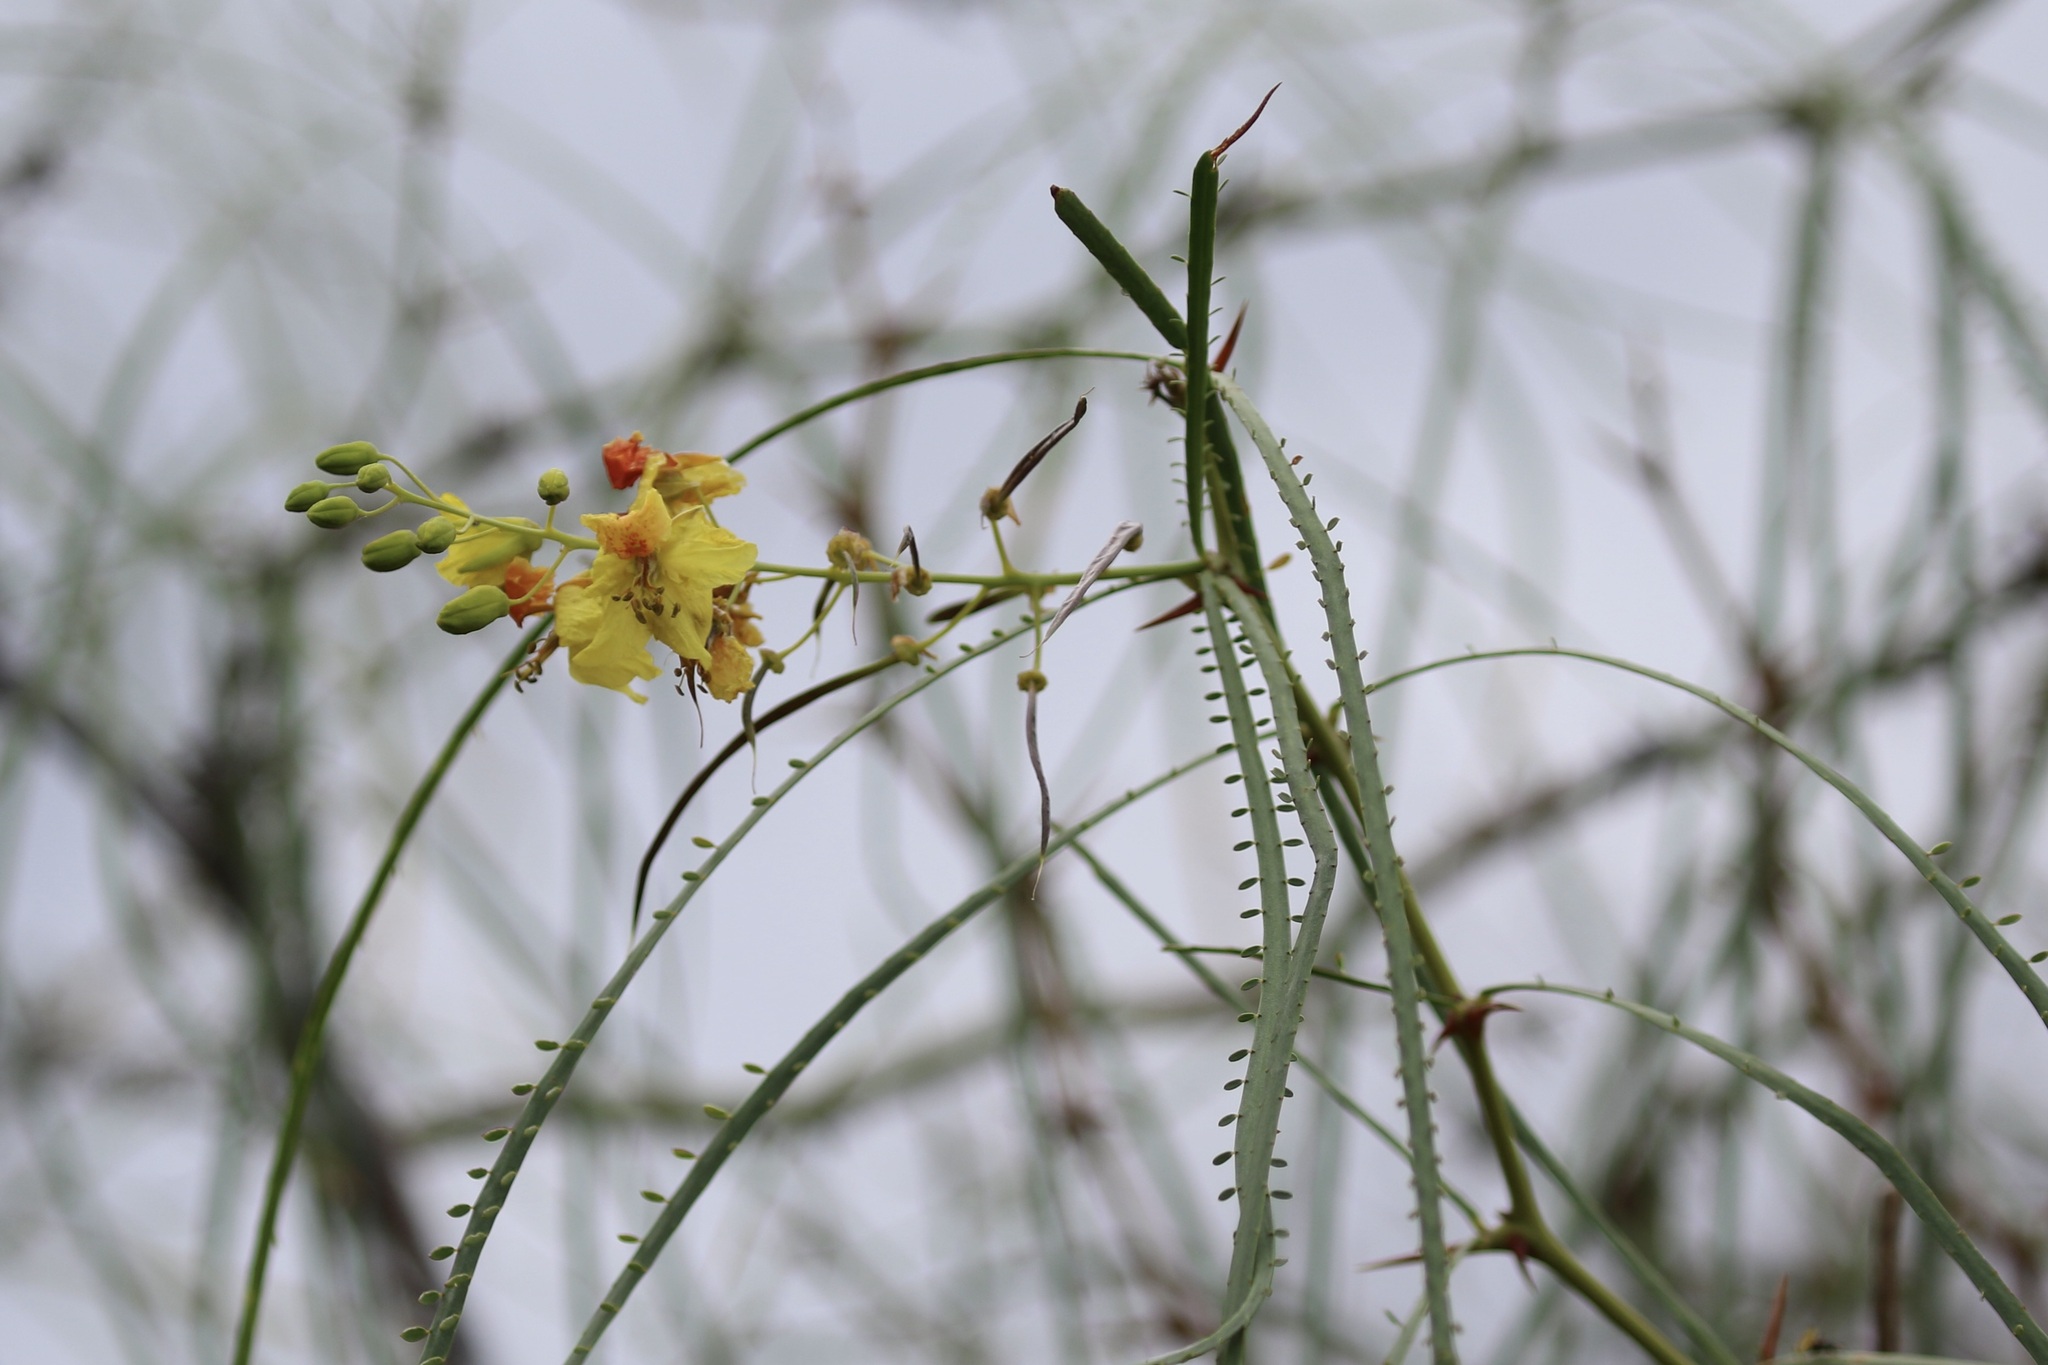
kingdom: Plantae
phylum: Tracheophyta
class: Magnoliopsida
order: Fabales
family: Fabaceae
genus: Parkinsonia
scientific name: Parkinsonia aculeata
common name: Jerusalem thorn
